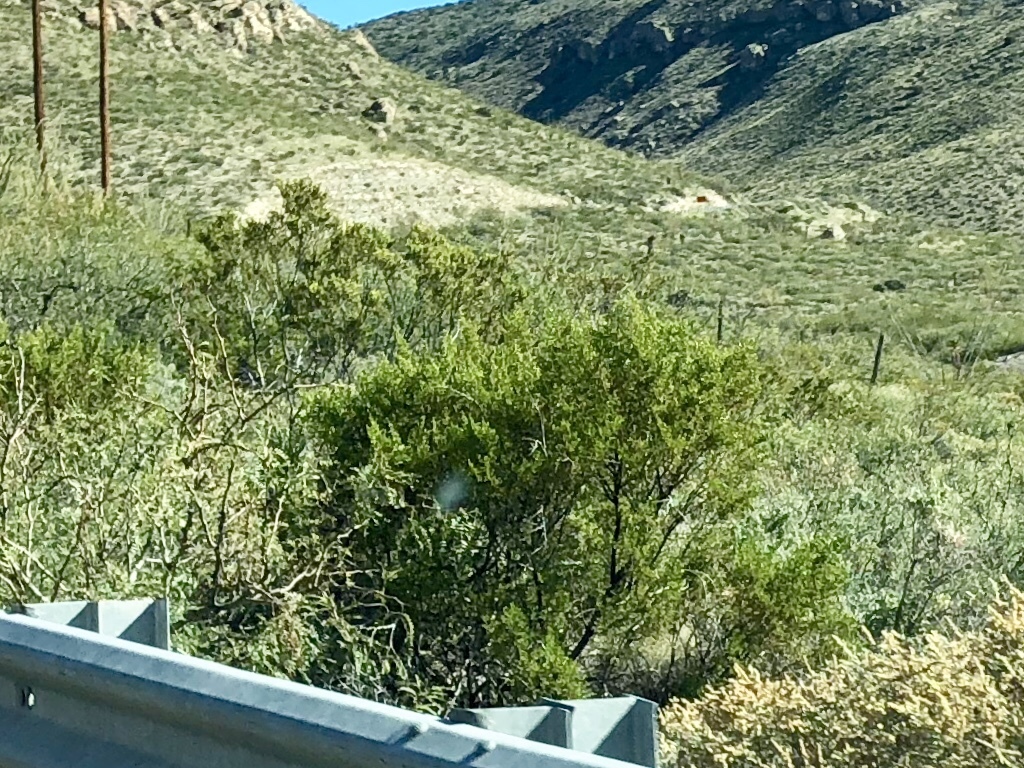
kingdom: Plantae
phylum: Tracheophyta
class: Magnoliopsida
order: Zygophyllales
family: Zygophyllaceae
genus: Larrea
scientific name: Larrea tridentata
